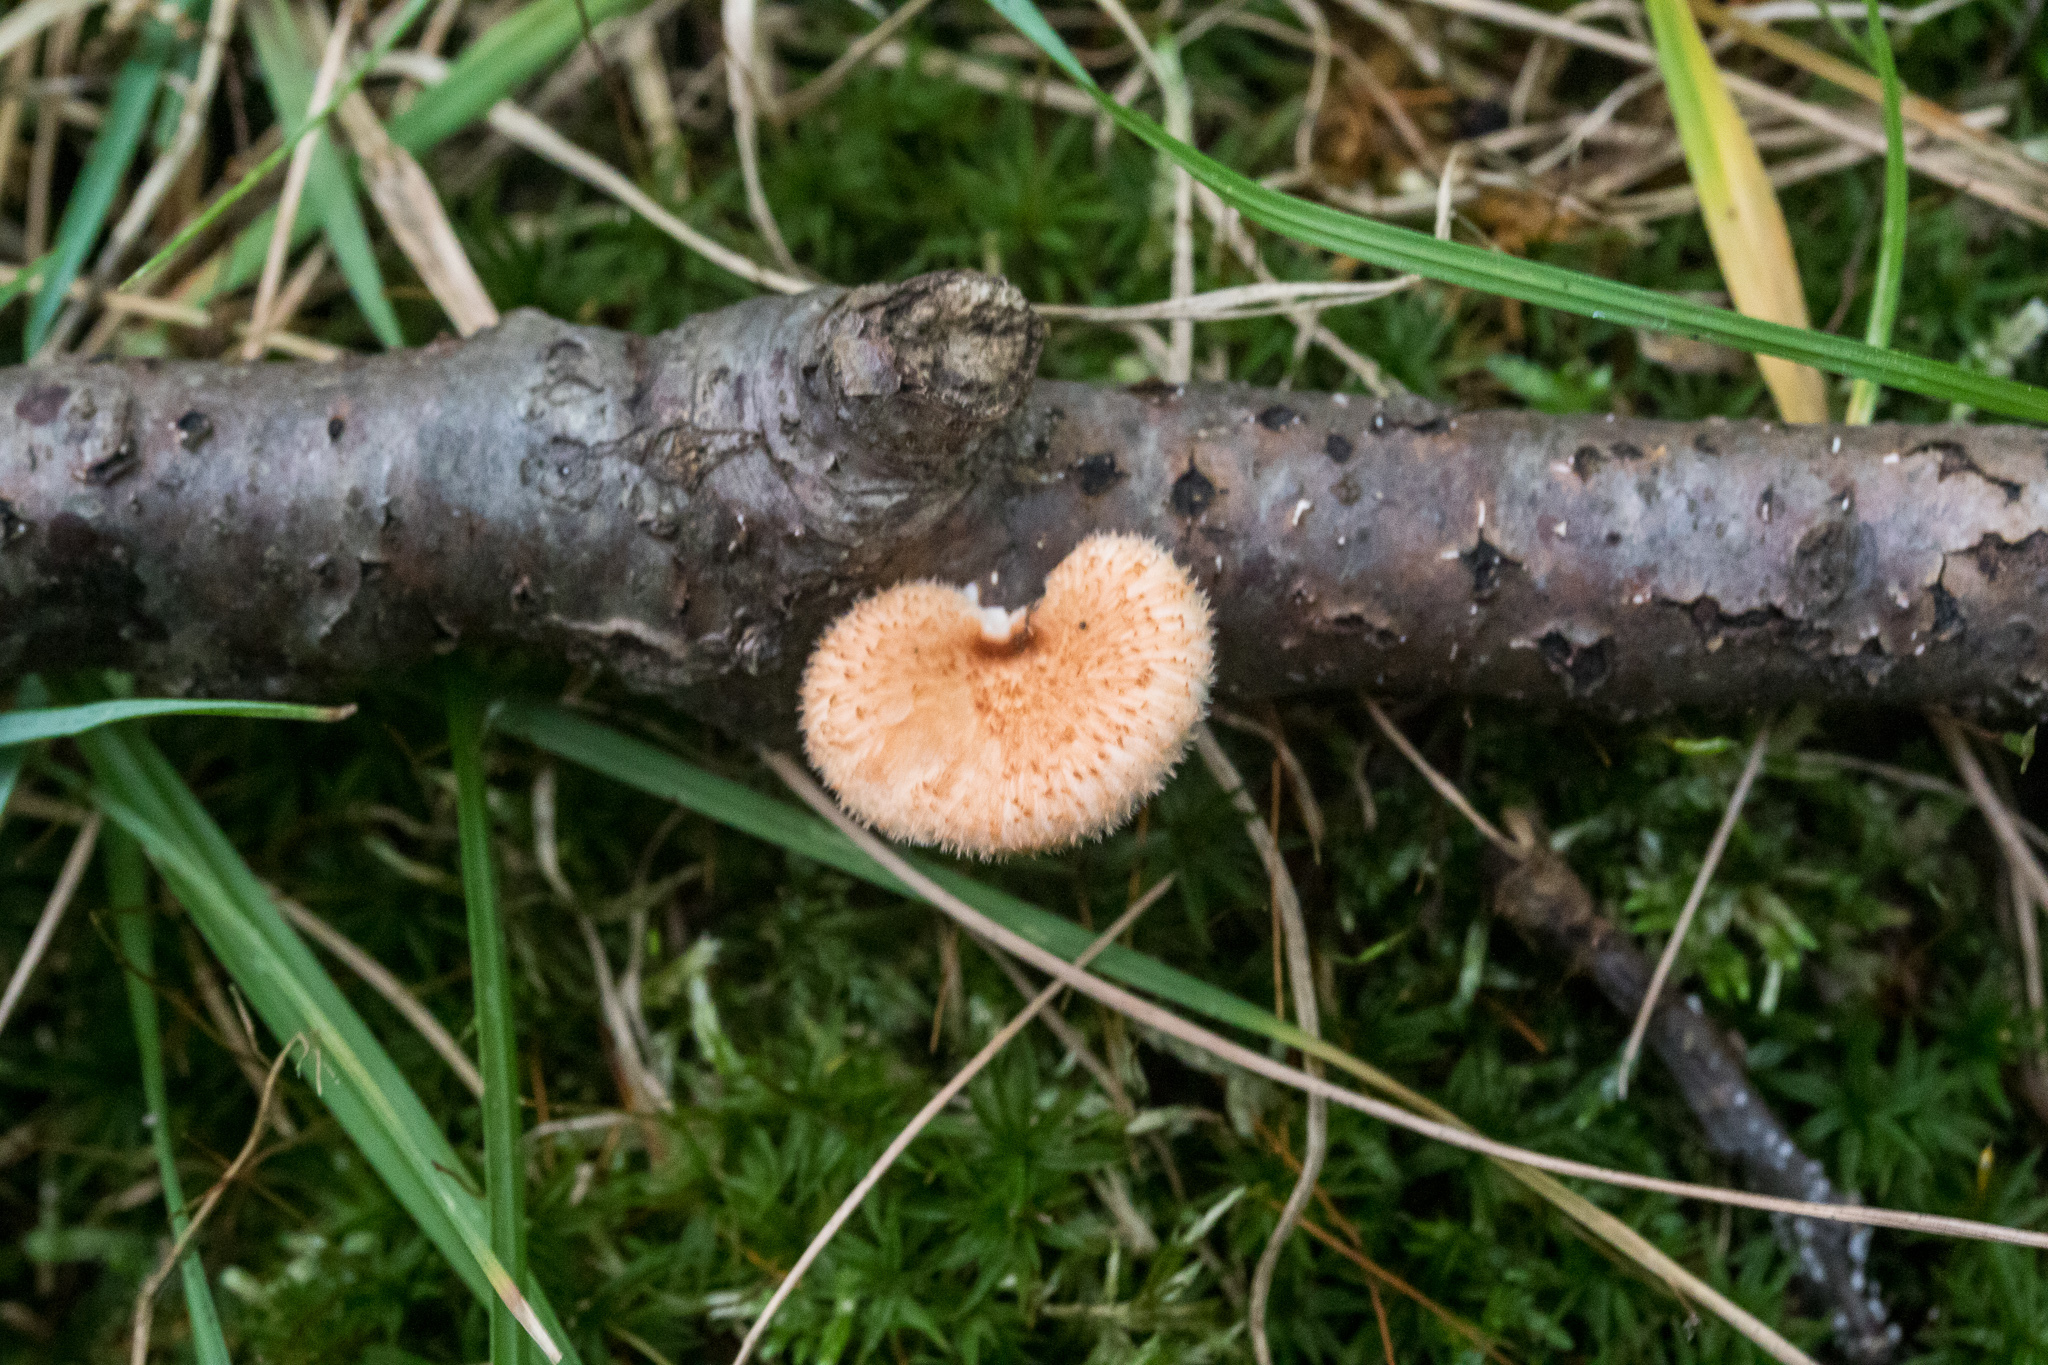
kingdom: Fungi
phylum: Basidiomycota
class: Agaricomycetes
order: Polyporales
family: Polyporaceae
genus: Neofavolus
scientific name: Neofavolus alveolaris
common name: Hexagonal-pored polypore
